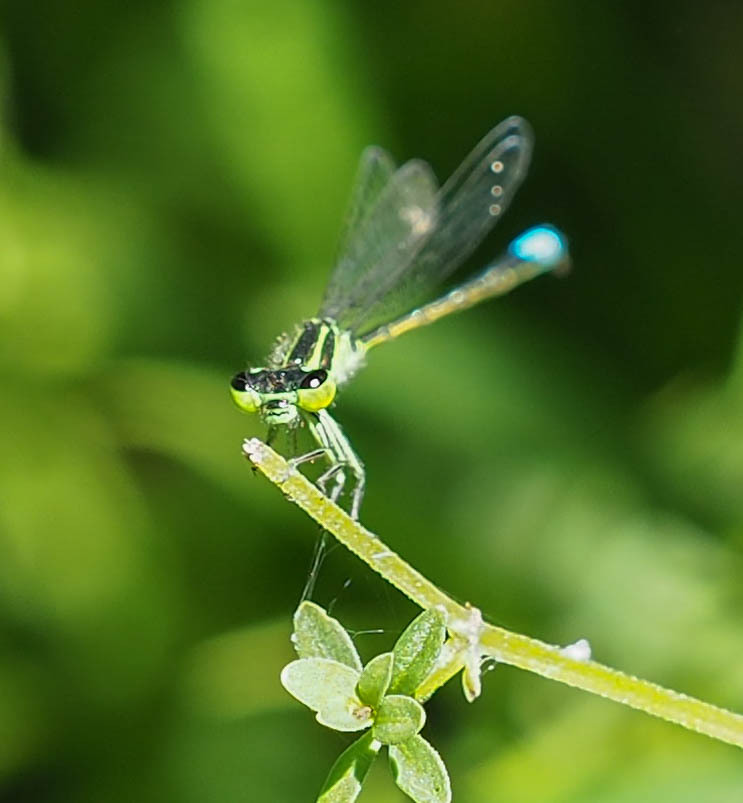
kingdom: Animalia
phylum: Arthropoda
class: Insecta
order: Odonata
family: Coenagrionidae
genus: Ischnura
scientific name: Ischnura verticalis
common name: Eastern forktail
